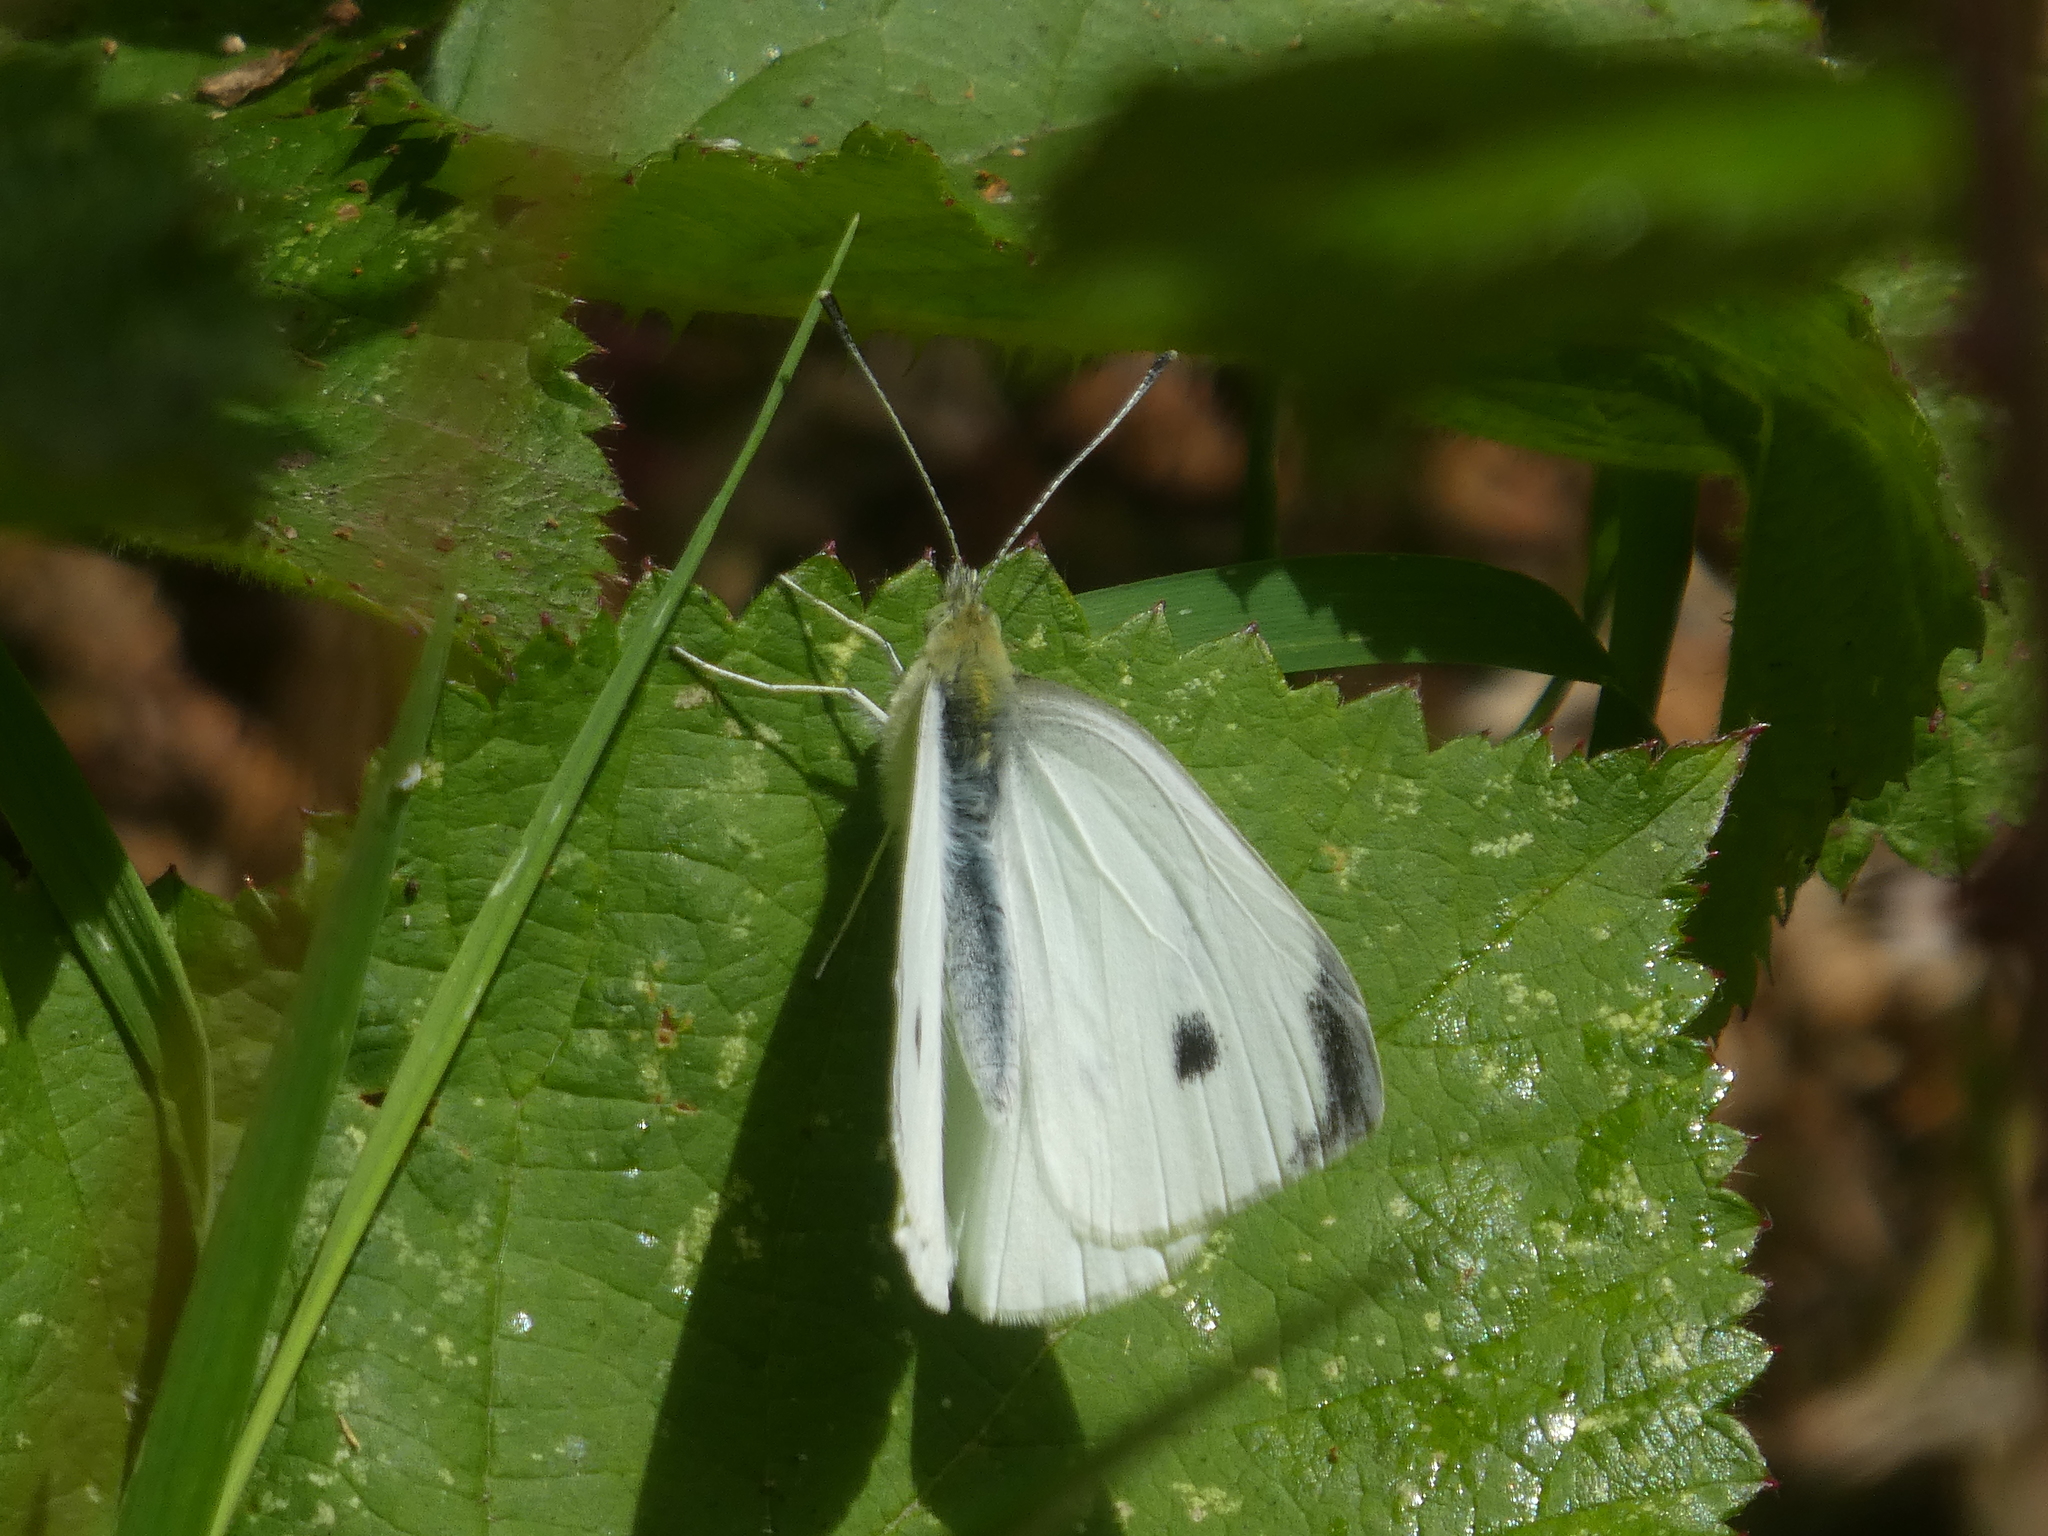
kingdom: Animalia
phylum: Arthropoda
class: Insecta
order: Lepidoptera
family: Pieridae
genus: Pieris
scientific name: Pieris rapae
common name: Small white
